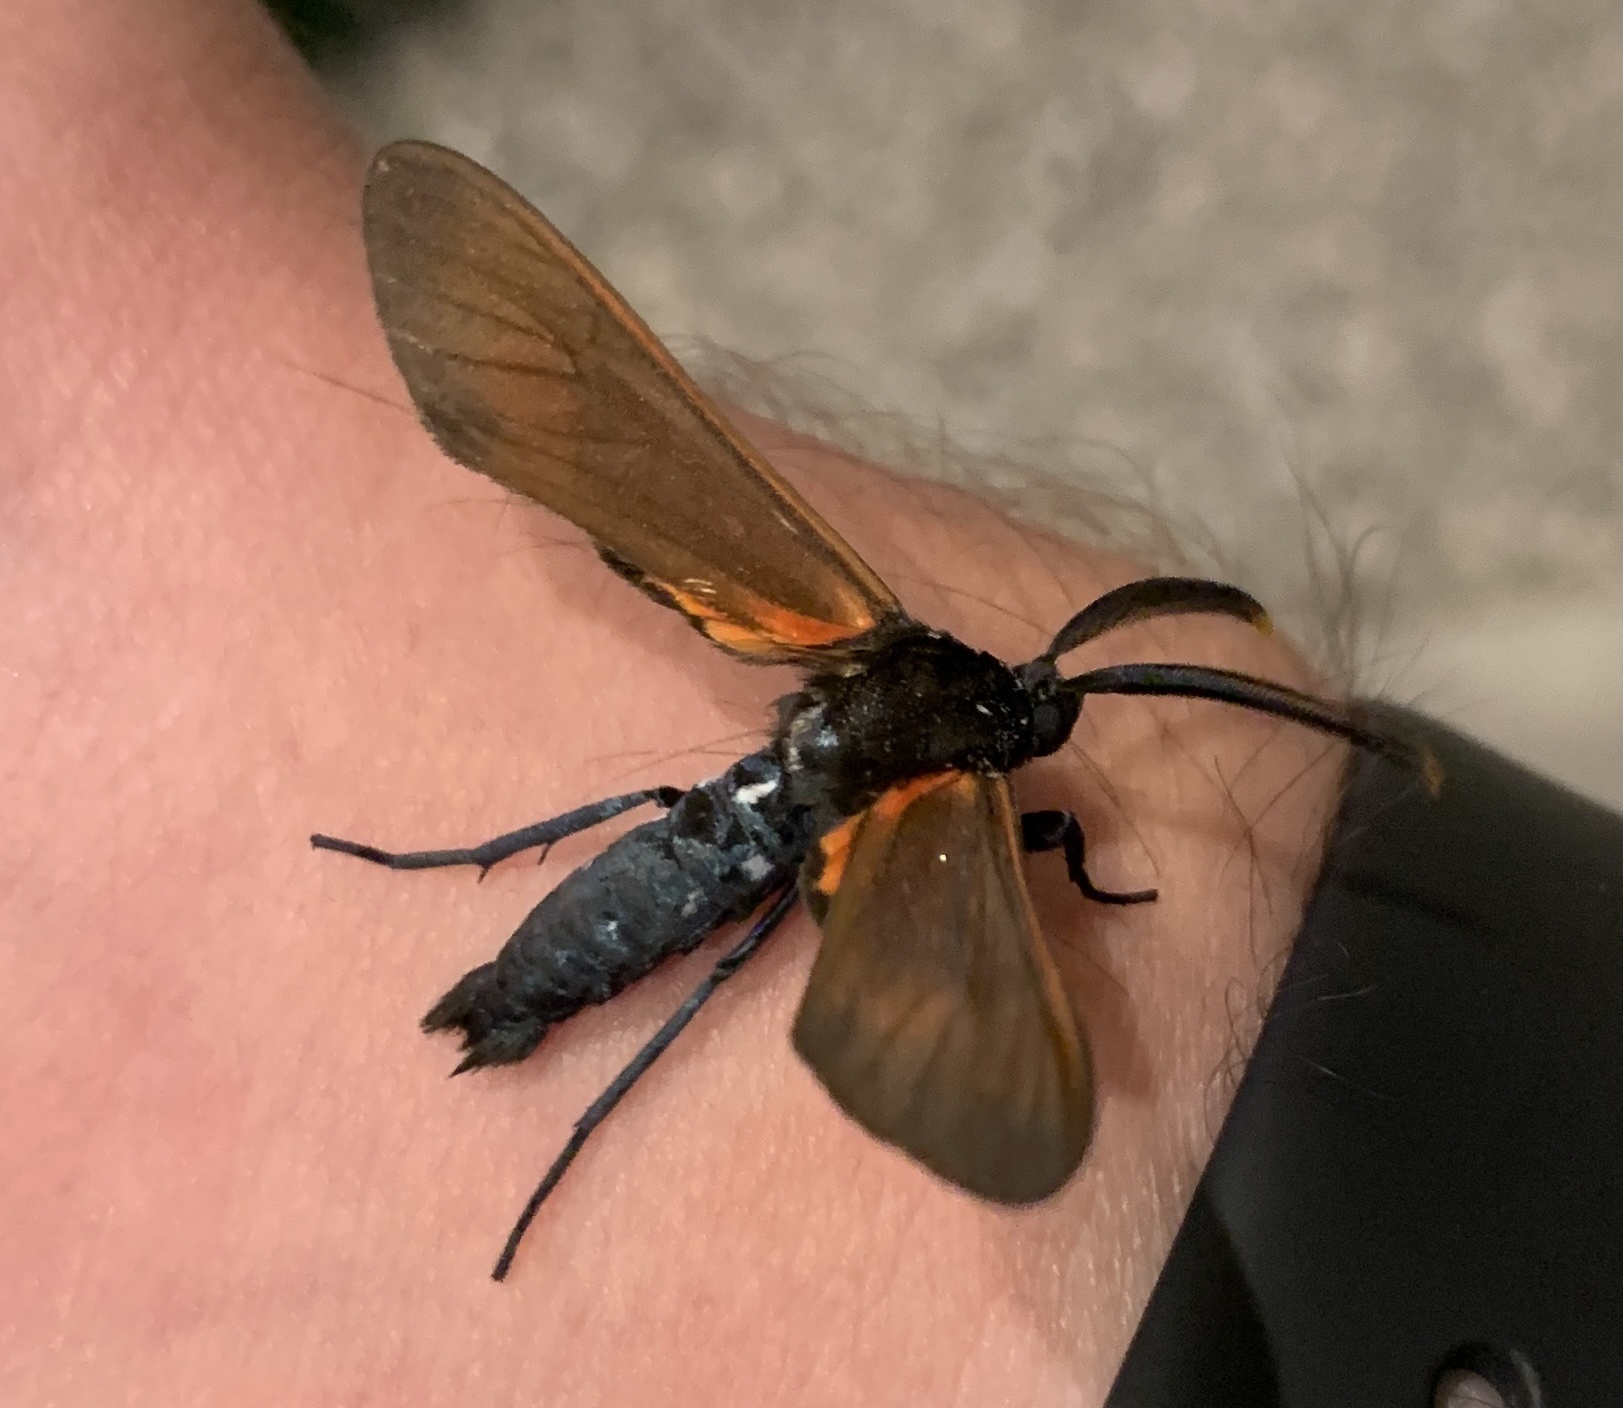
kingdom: Animalia
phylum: Arthropoda
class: Insecta
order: Lepidoptera
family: Erebidae
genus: Empyreuma
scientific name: Empyreuma pugione
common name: Spotted oleander caterpillar moth
